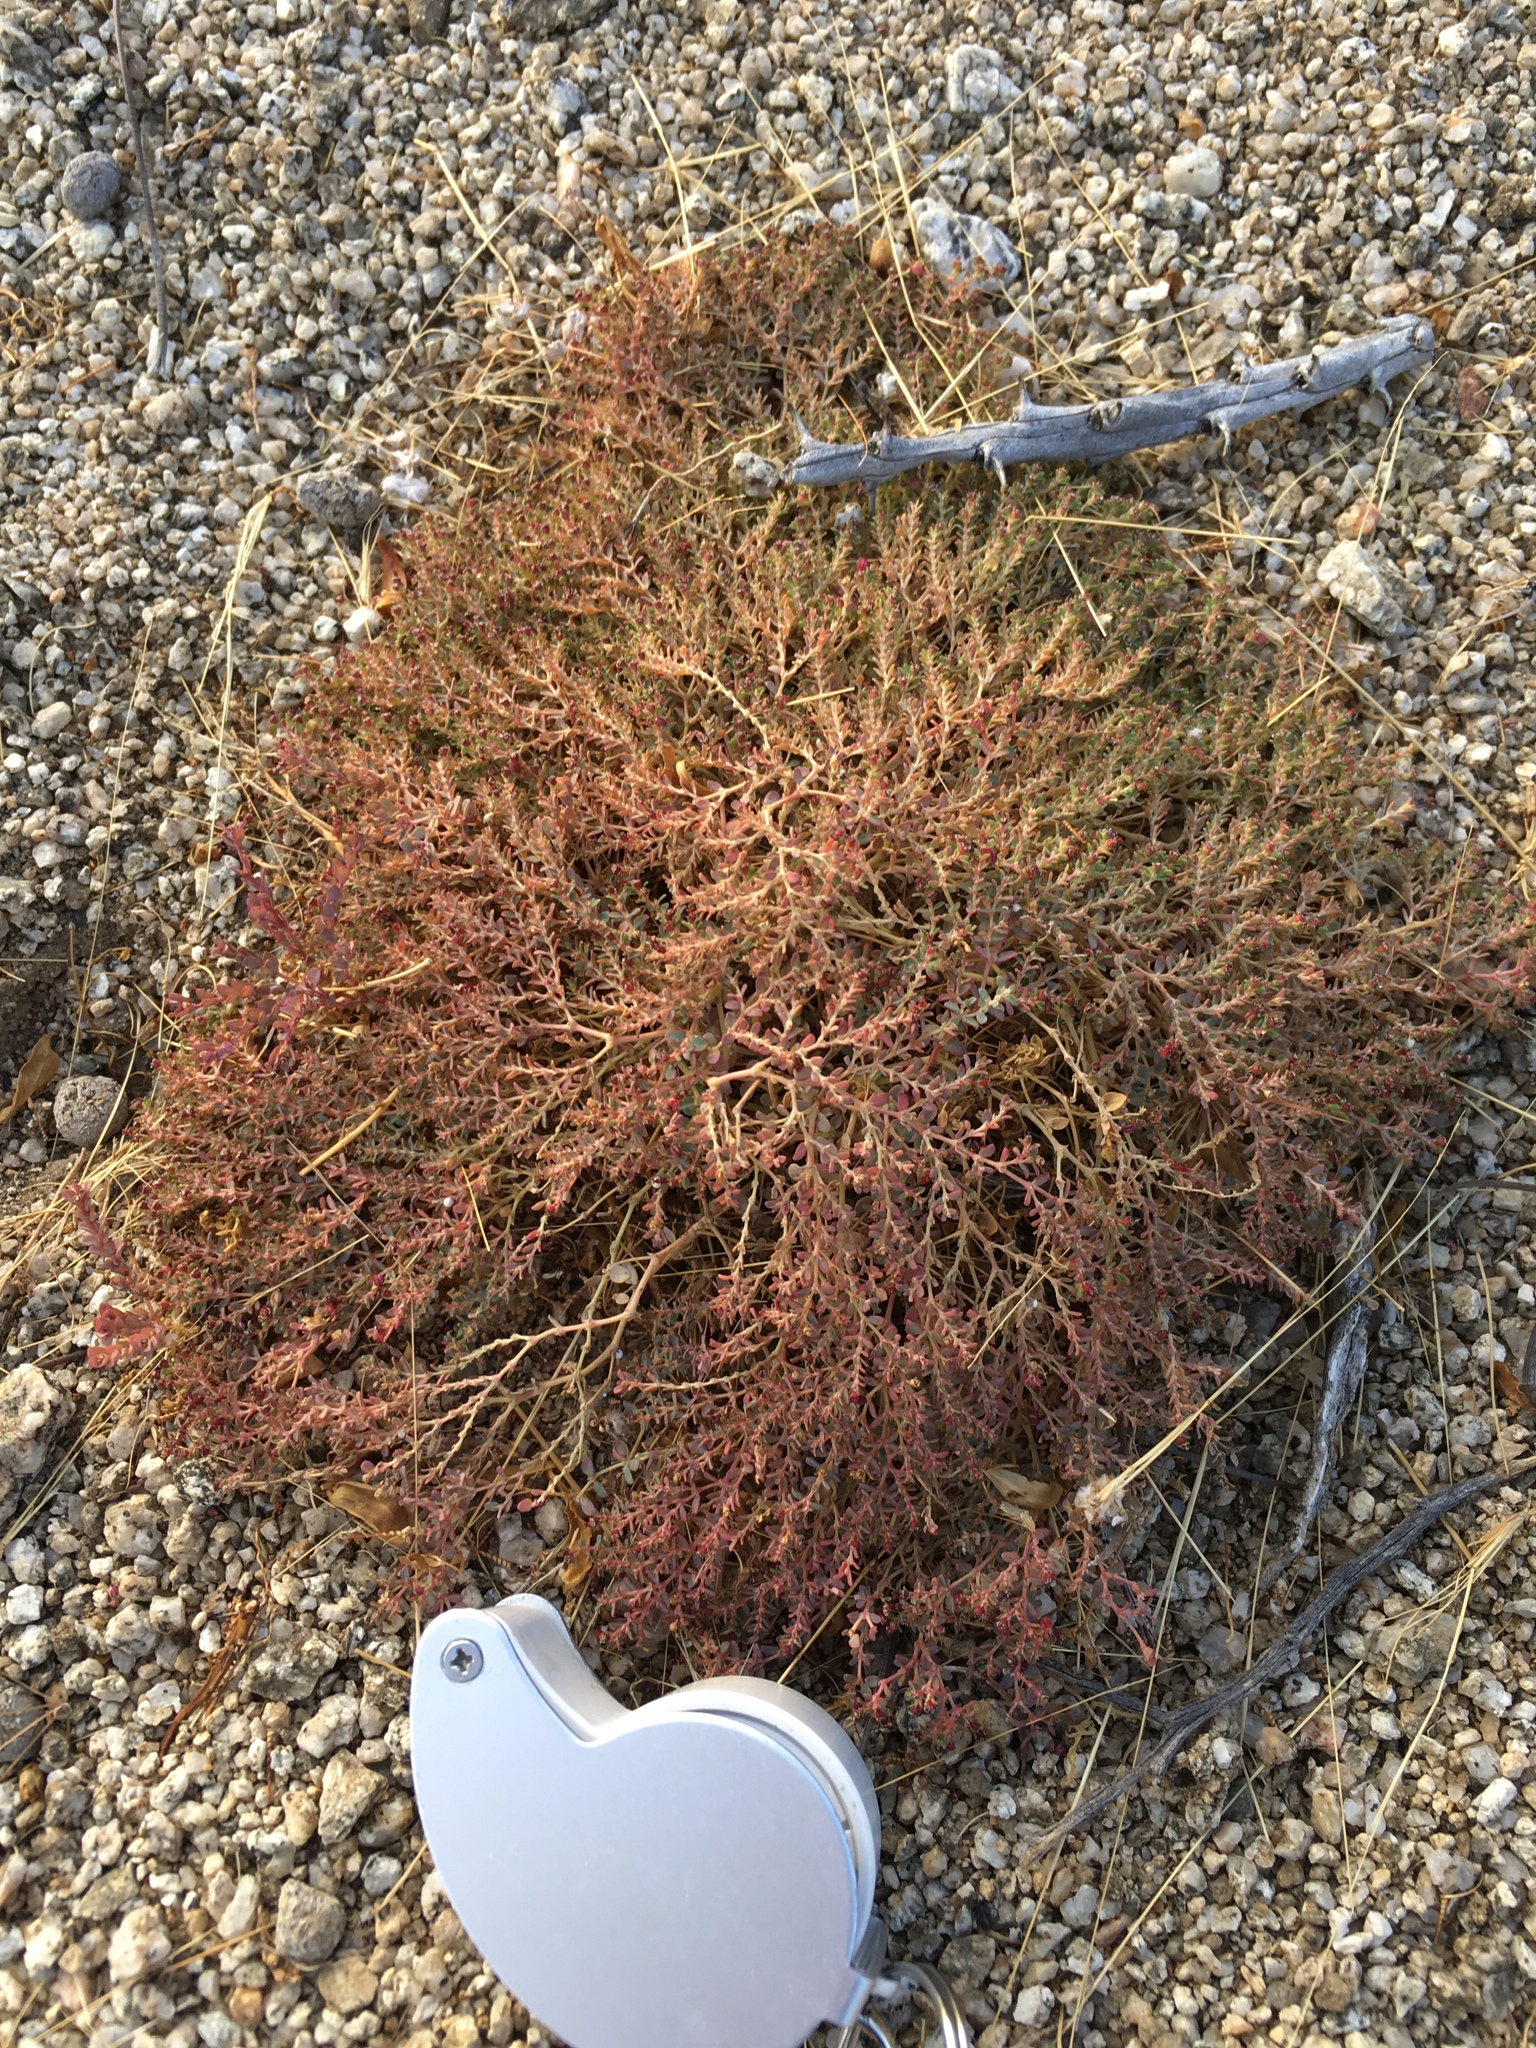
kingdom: Plantae
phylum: Tracheophyta
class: Magnoliopsida
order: Malpighiales
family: Euphorbiaceae
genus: Euphorbia
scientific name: Euphorbia polycarpa
